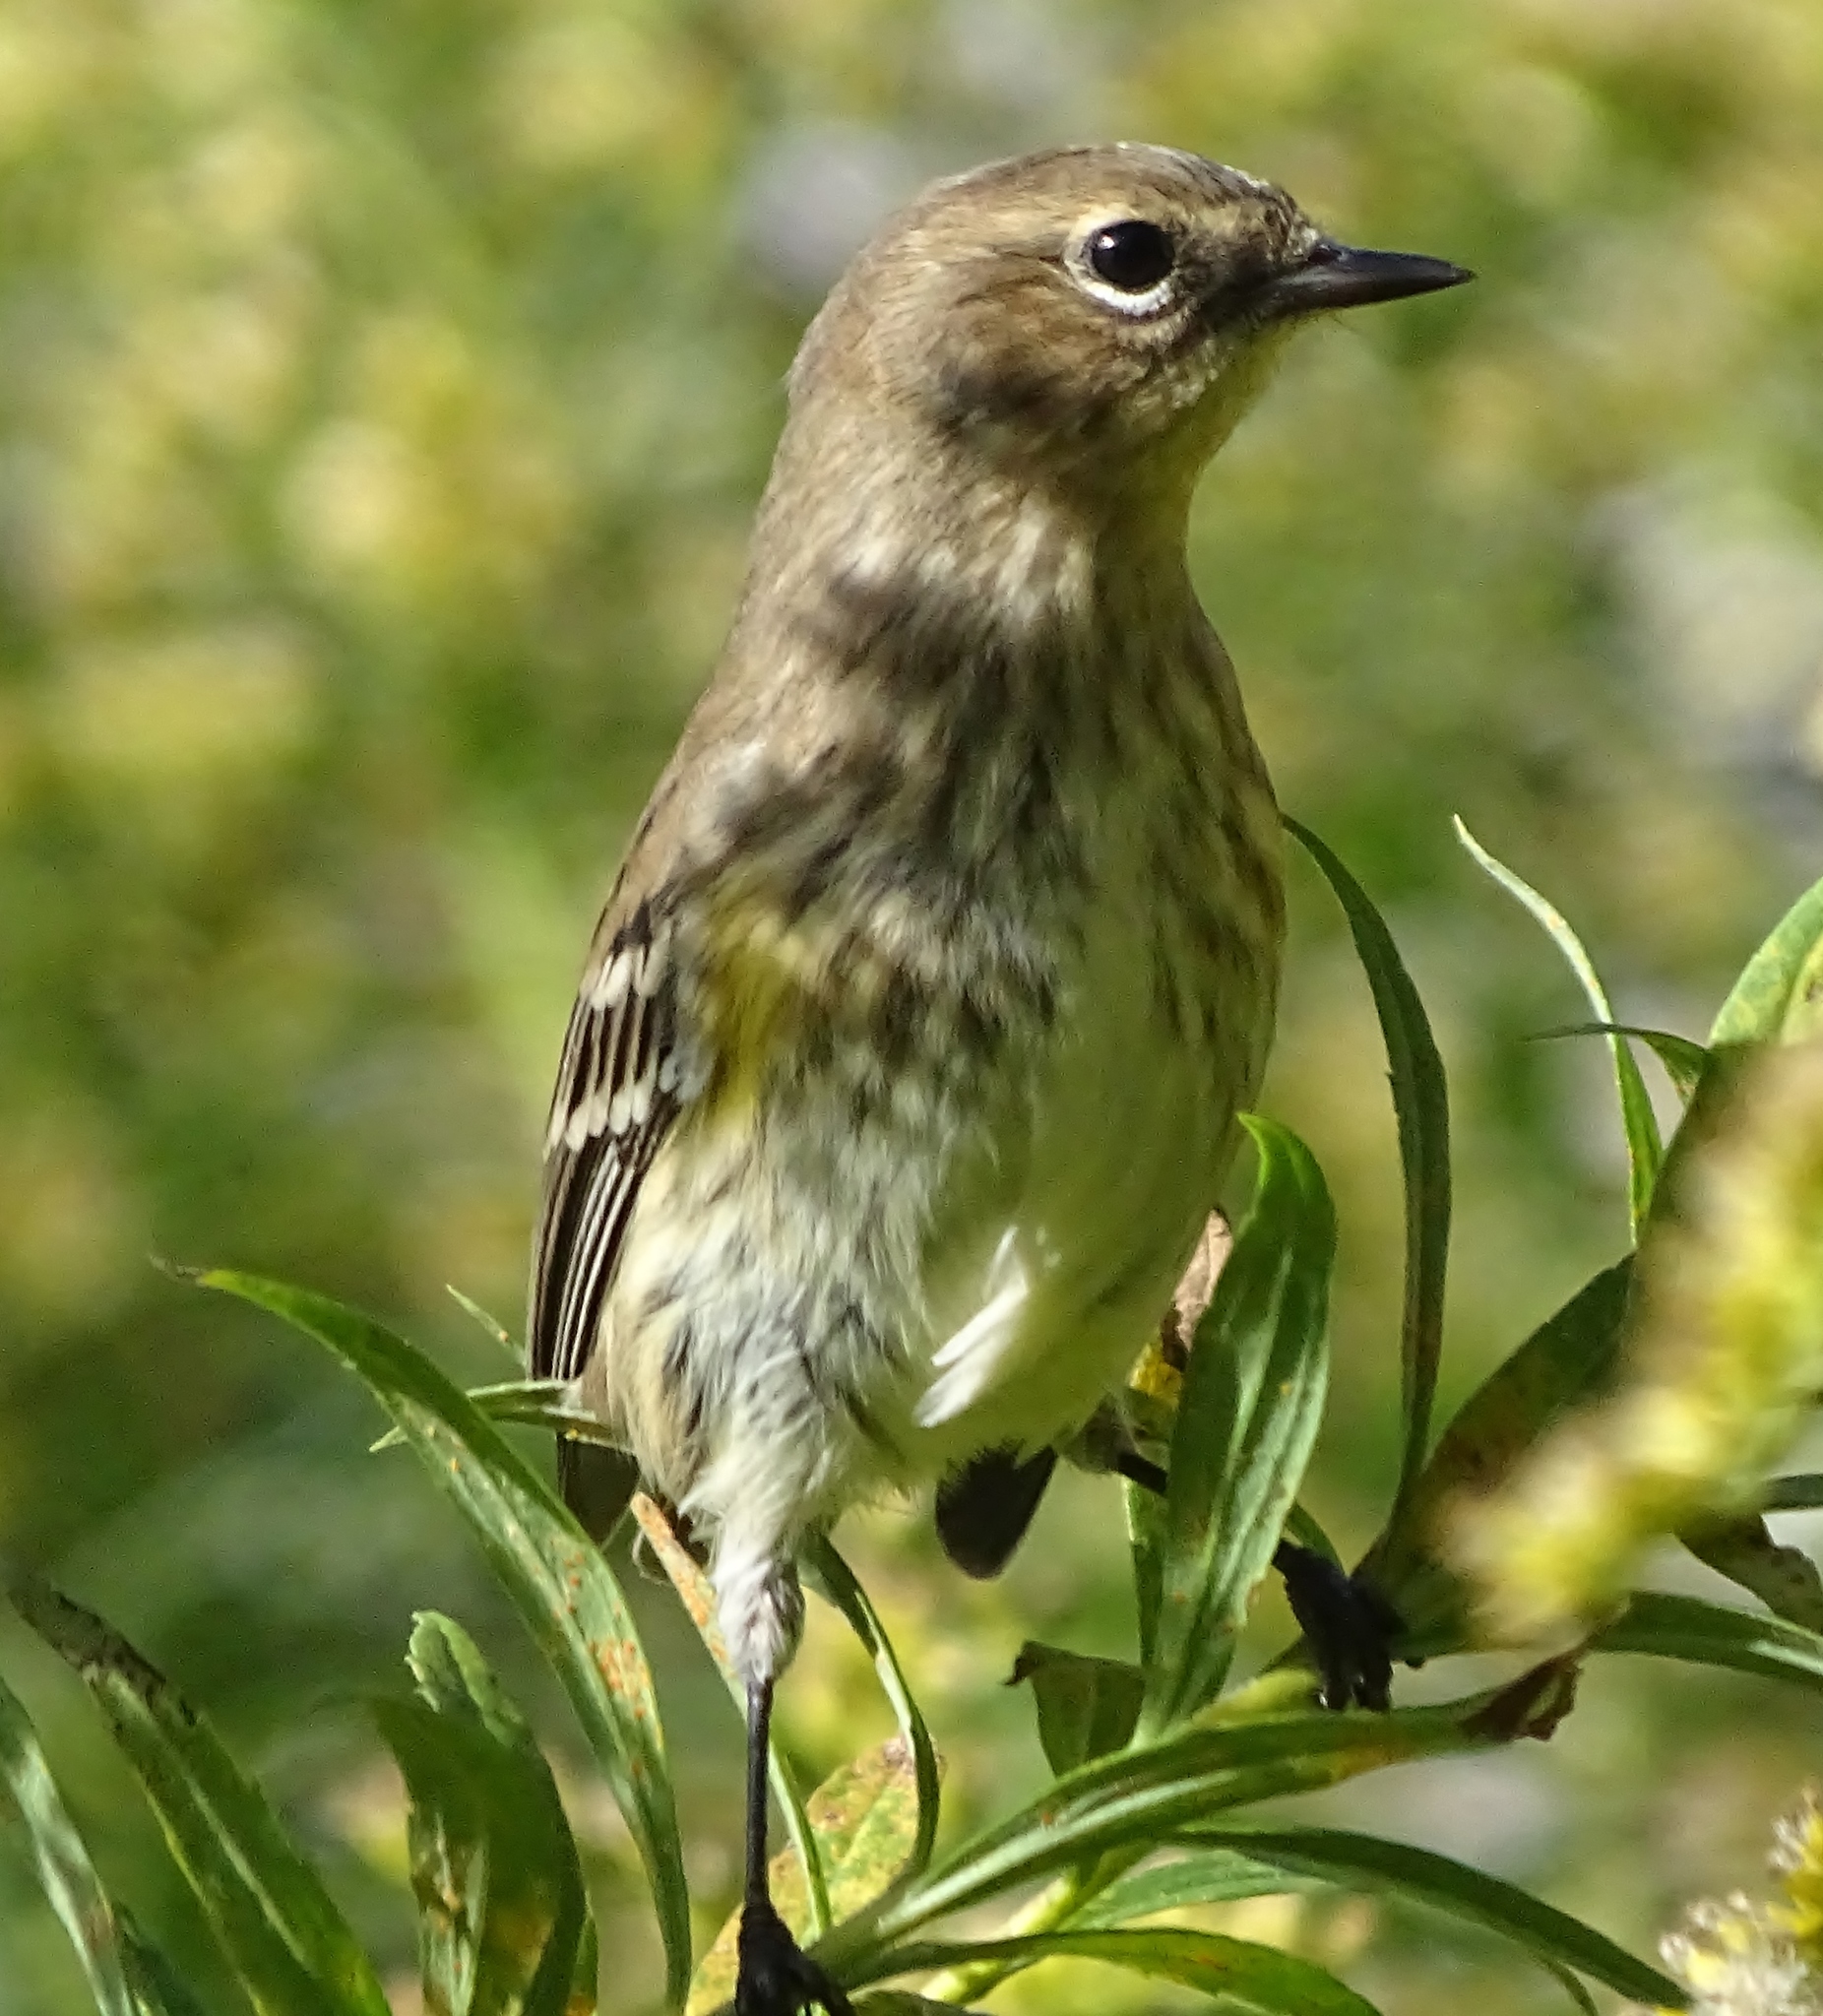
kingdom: Animalia
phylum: Chordata
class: Aves
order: Passeriformes
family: Parulidae
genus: Setophaga
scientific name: Setophaga coronata
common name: Myrtle warbler
